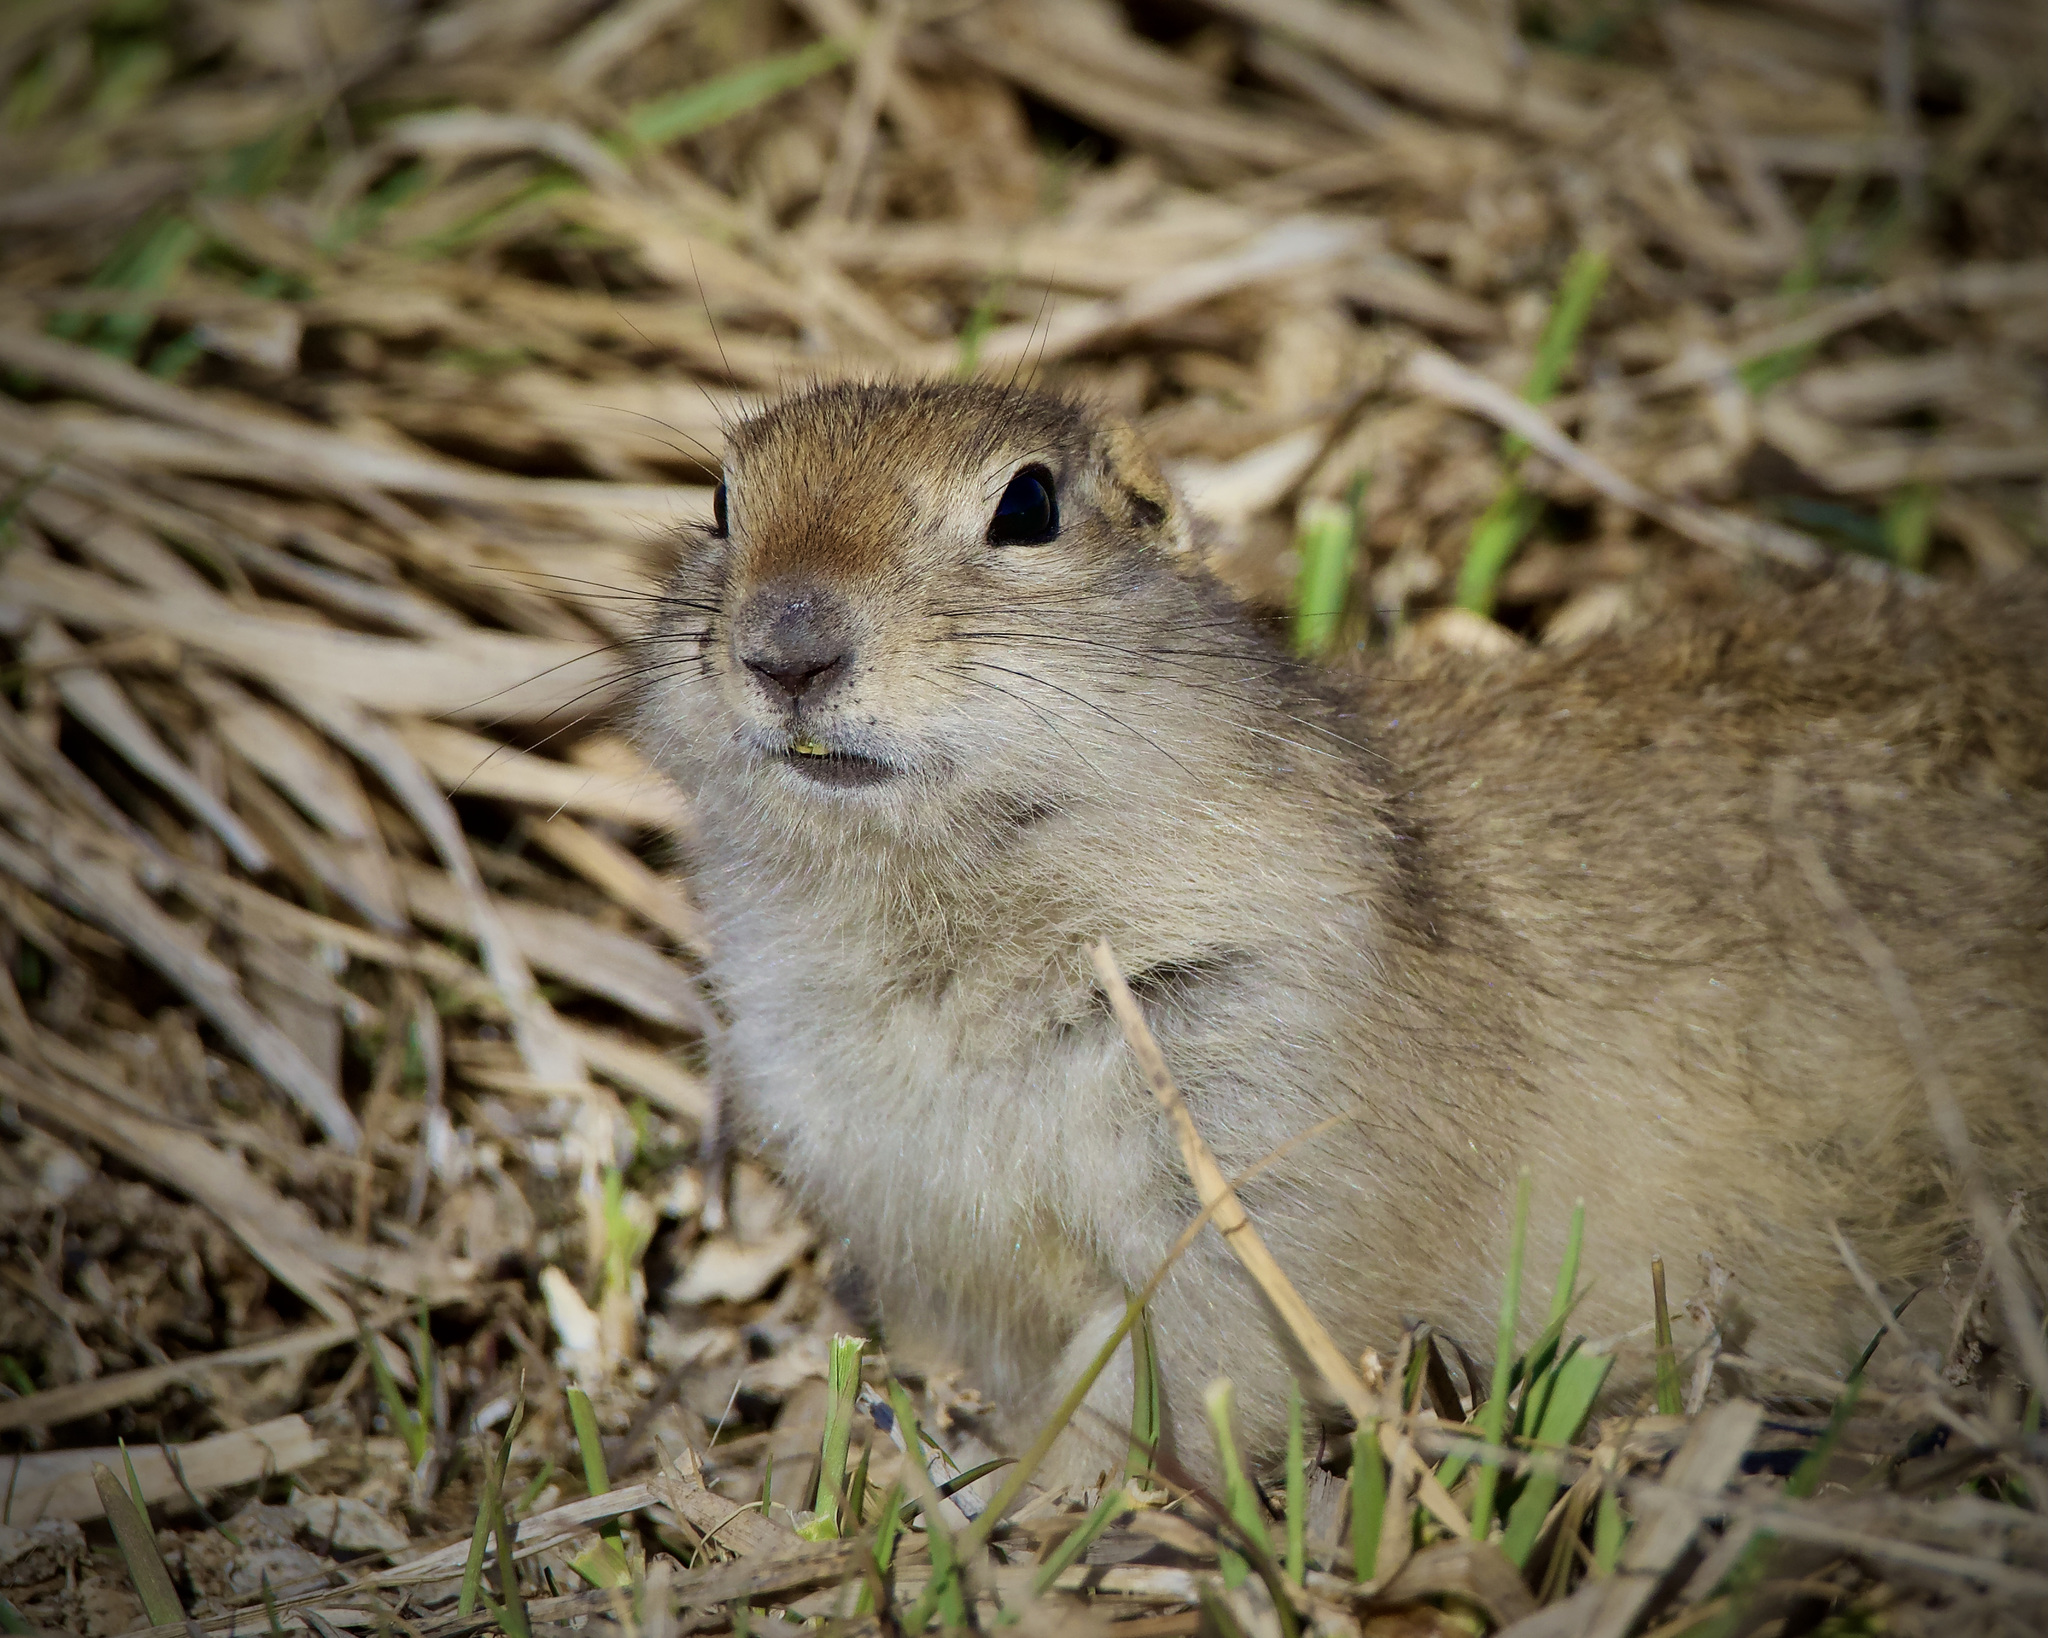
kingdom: Animalia
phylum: Chordata
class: Mammalia
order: Rodentia
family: Sciuridae
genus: Urocitellus
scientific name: Urocitellus richardsonii
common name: Richardson's ground squirrel
